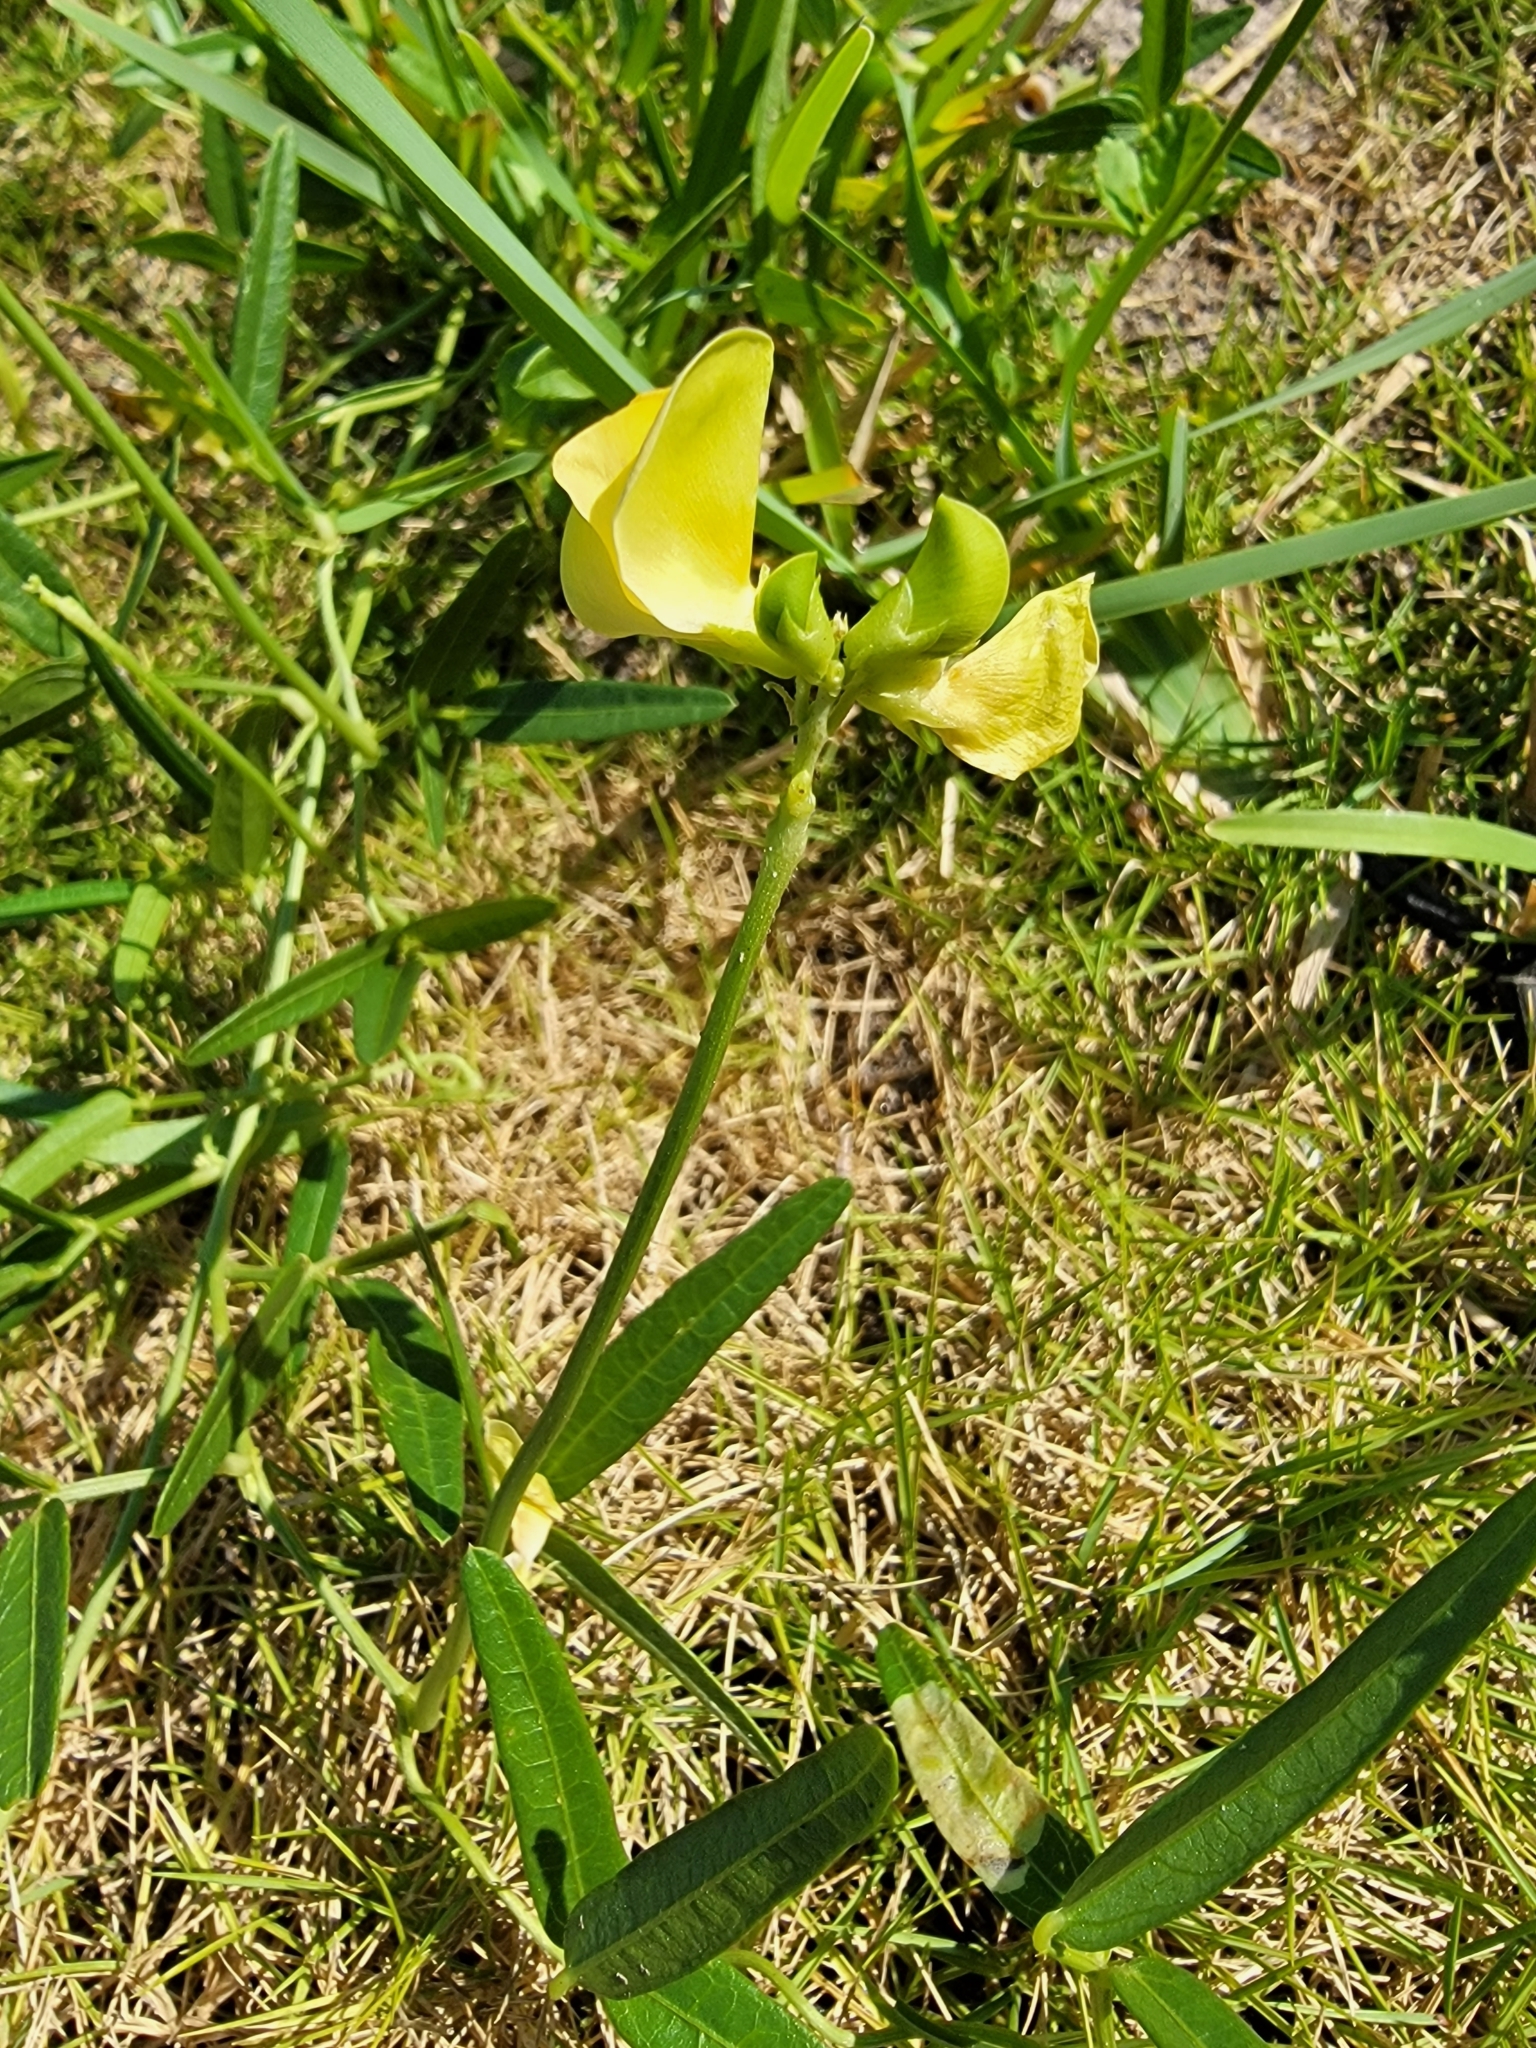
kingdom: Plantae
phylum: Tracheophyta
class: Magnoliopsida
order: Fabales
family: Fabaceae
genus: Vigna
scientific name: Vigna luteola
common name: Hairypod cowpea
